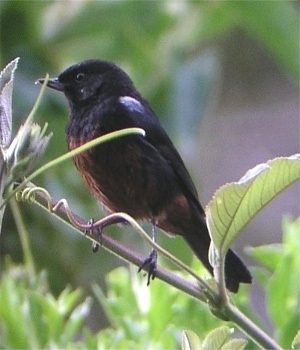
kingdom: Animalia
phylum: Chordata
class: Aves
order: Passeriformes
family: Thraupidae
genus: Diglossa
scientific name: Diglossa gloriosa
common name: Merida flowerpiercer
